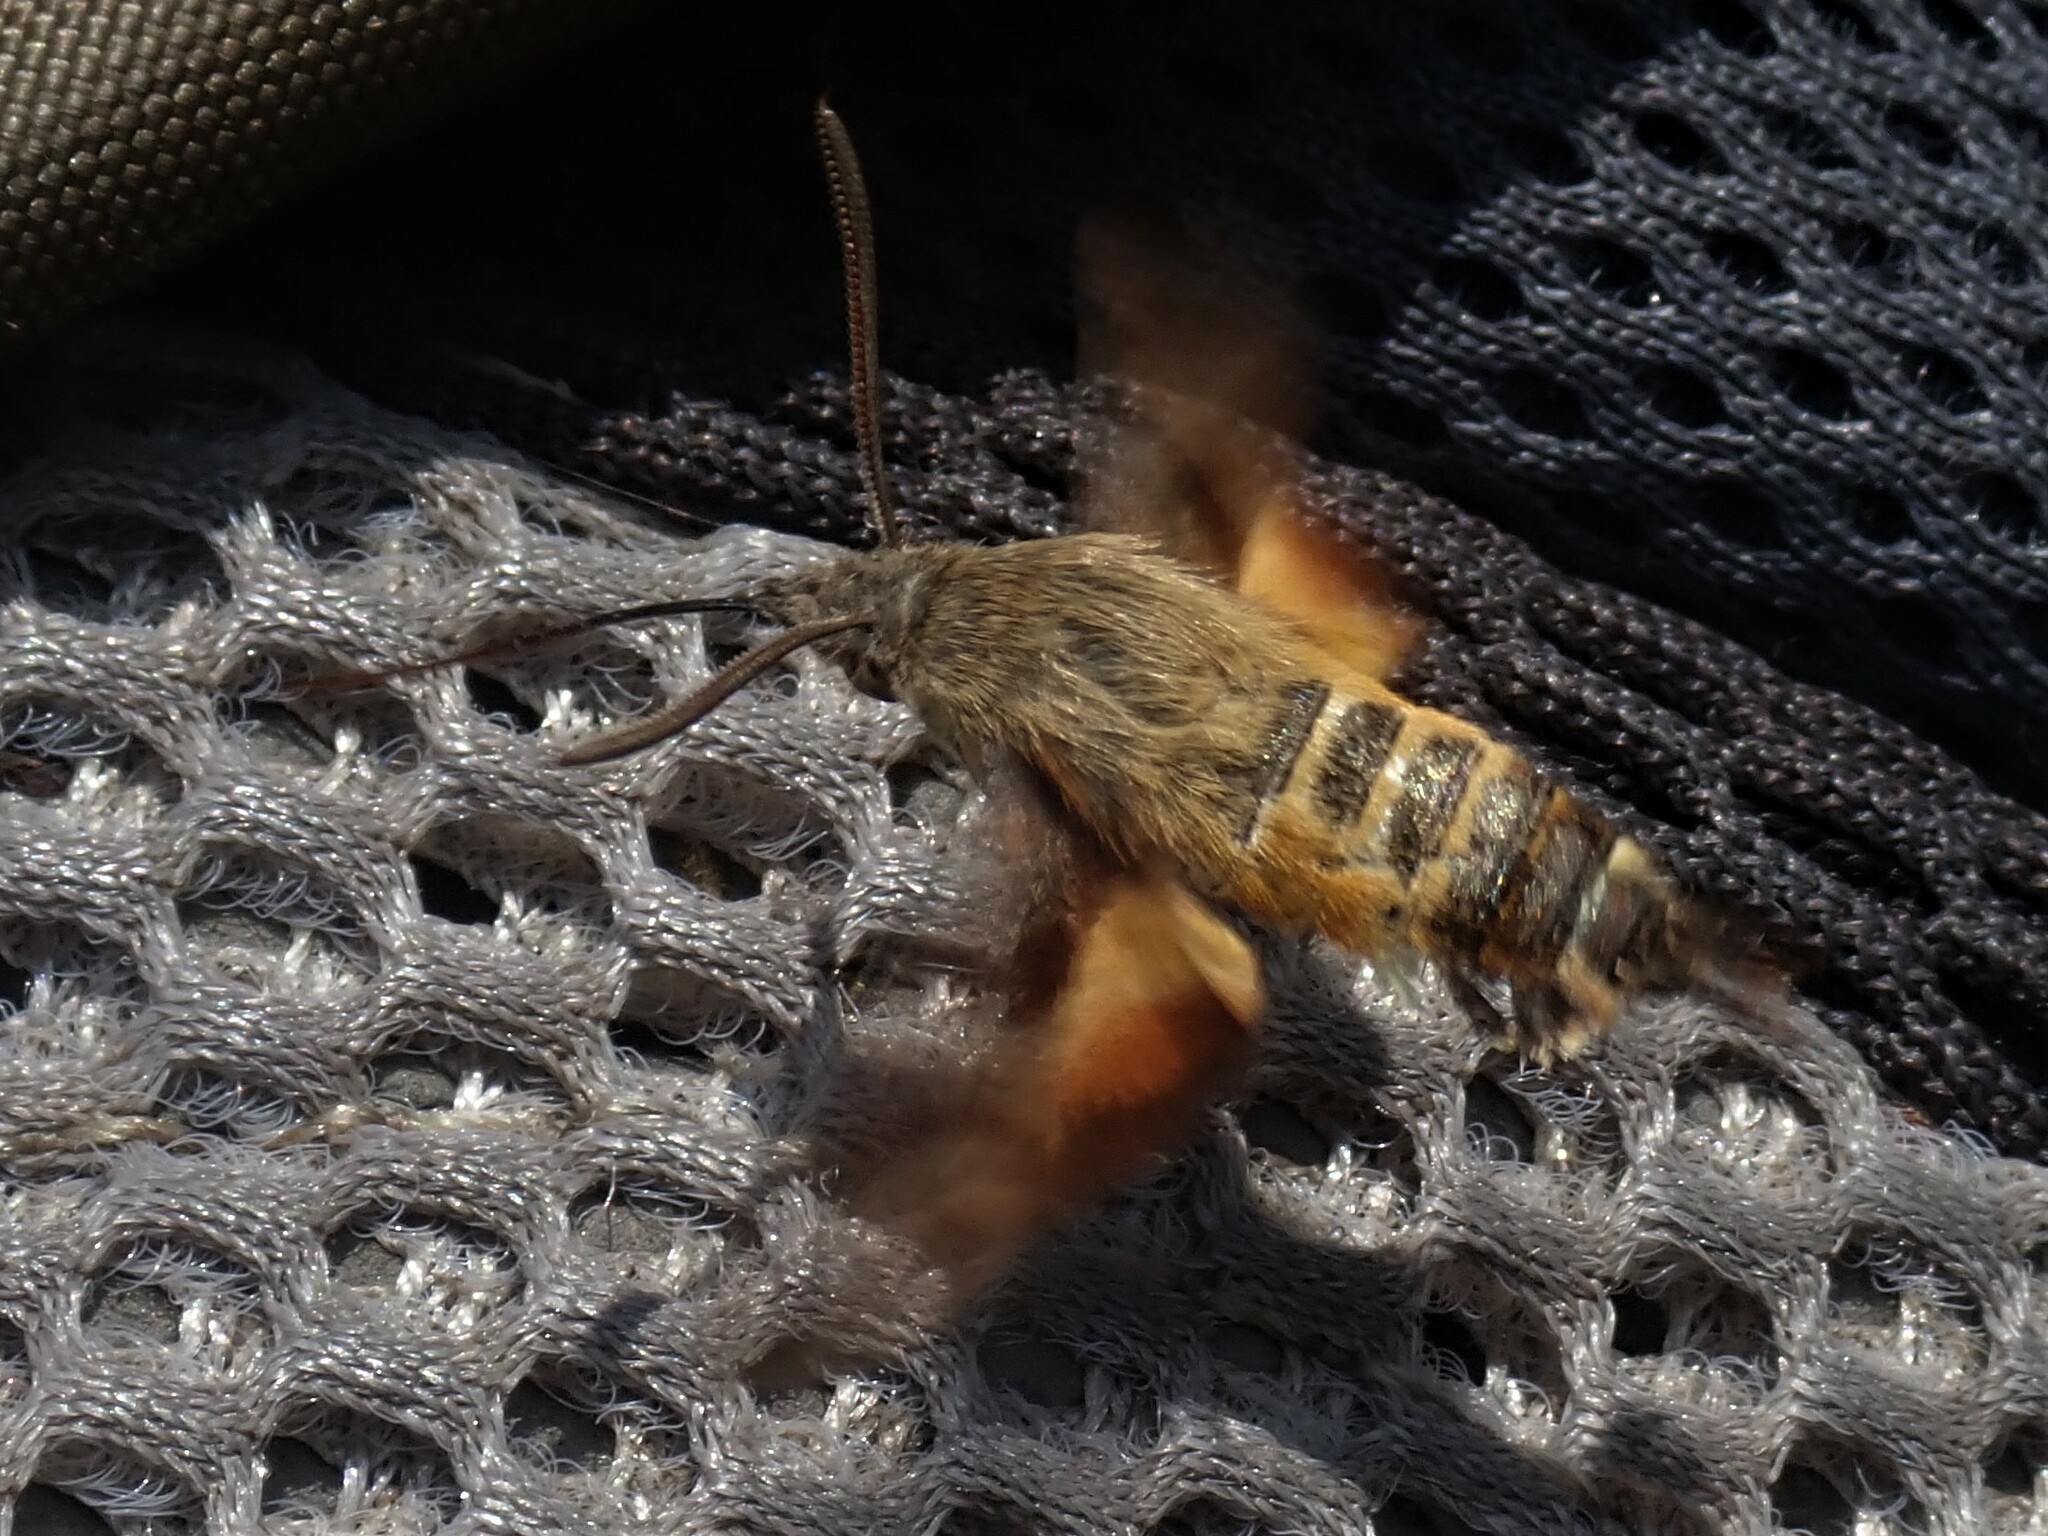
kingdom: Animalia
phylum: Arthropoda
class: Insecta
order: Lepidoptera
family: Sphingidae
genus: Macroglossum
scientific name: Macroglossum trochilus
